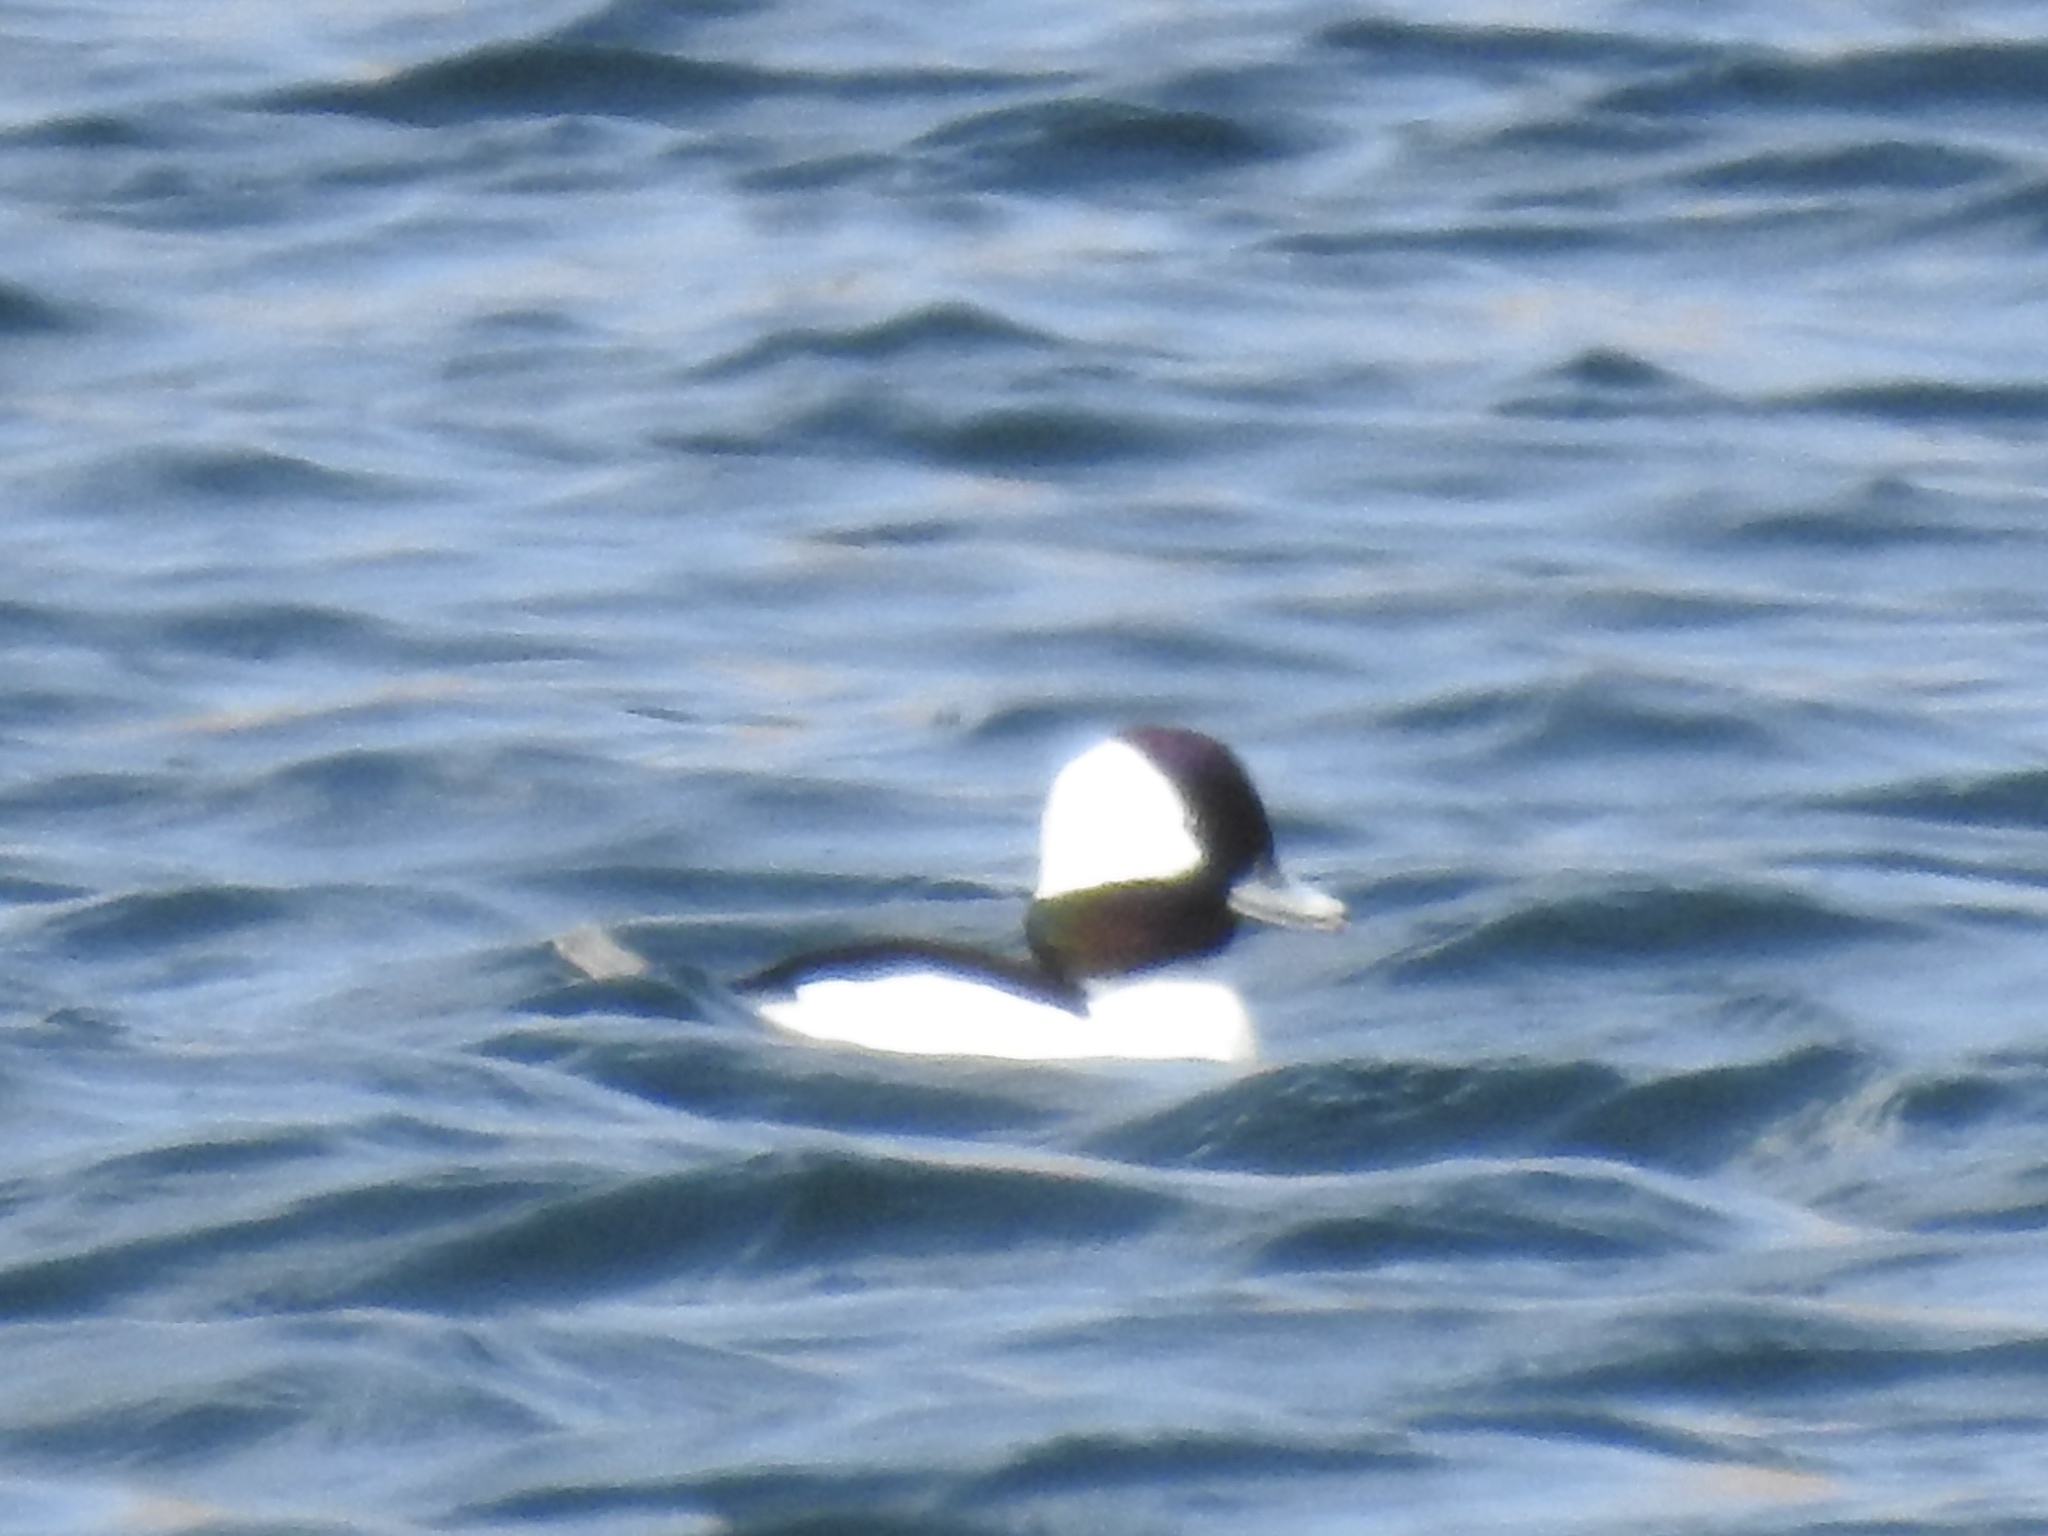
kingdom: Animalia
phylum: Chordata
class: Aves
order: Anseriformes
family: Anatidae
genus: Bucephala
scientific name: Bucephala albeola
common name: Bufflehead
